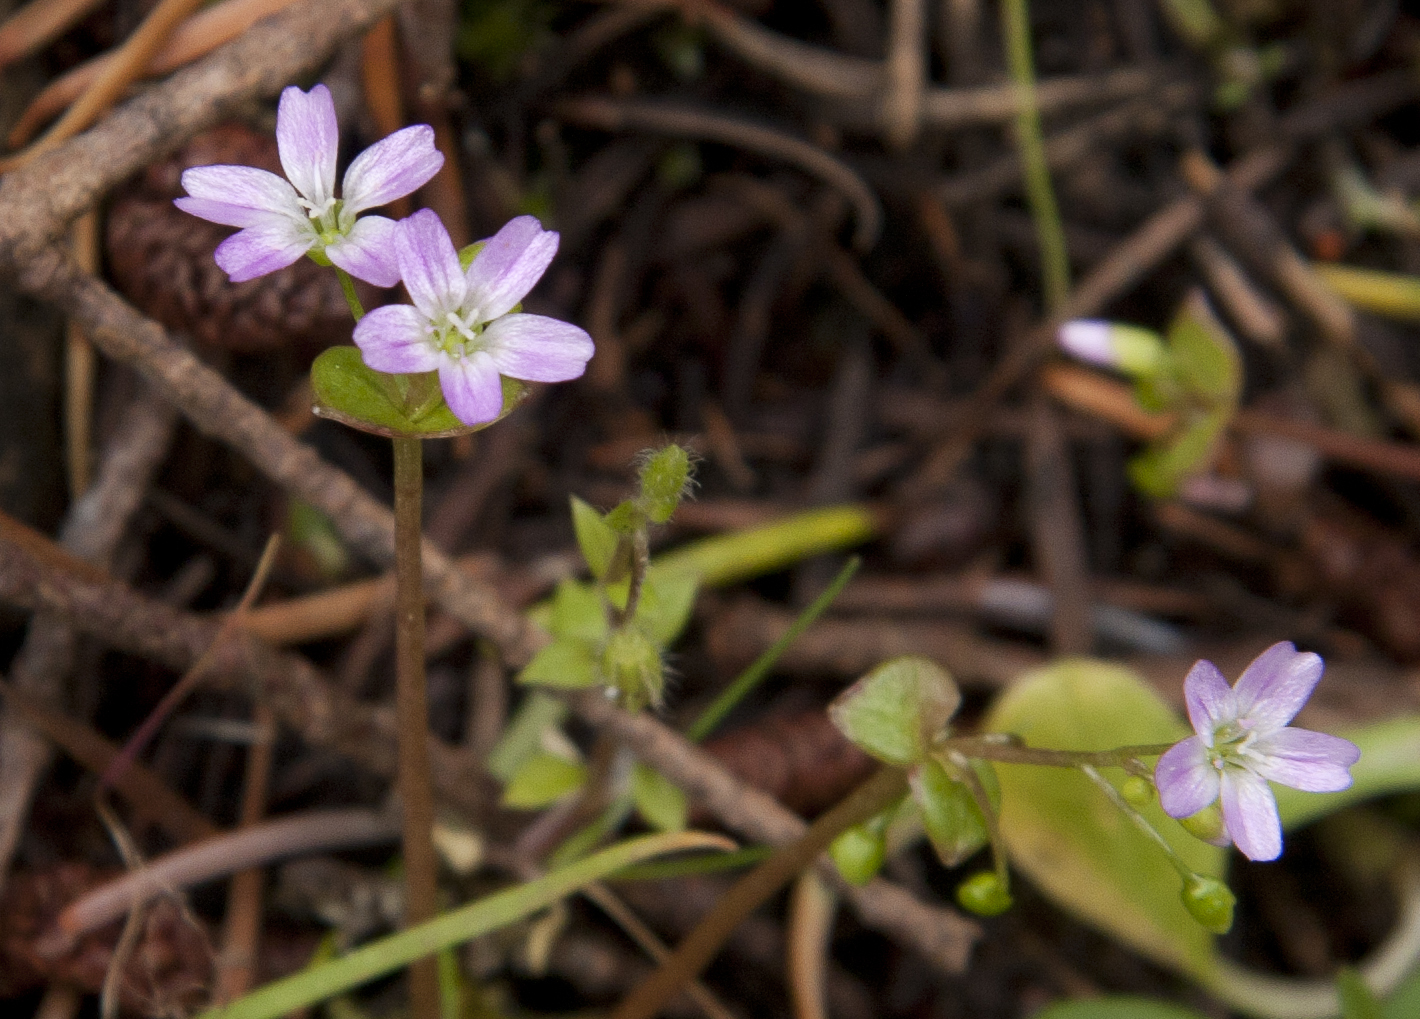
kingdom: Plantae
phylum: Tracheophyta
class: Magnoliopsida
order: Caryophyllales
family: Montiaceae
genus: Claytonia
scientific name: Claytonia sibirica
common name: Pink purslane
